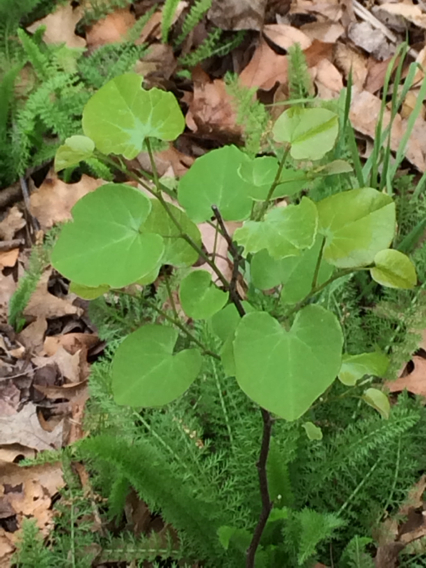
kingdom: Plantae
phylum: Tracheophyta
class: Magnoliopsida
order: Fabales
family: Fabaceae
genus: Cercis
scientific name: Cercis canadensis
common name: Eastern redbud
